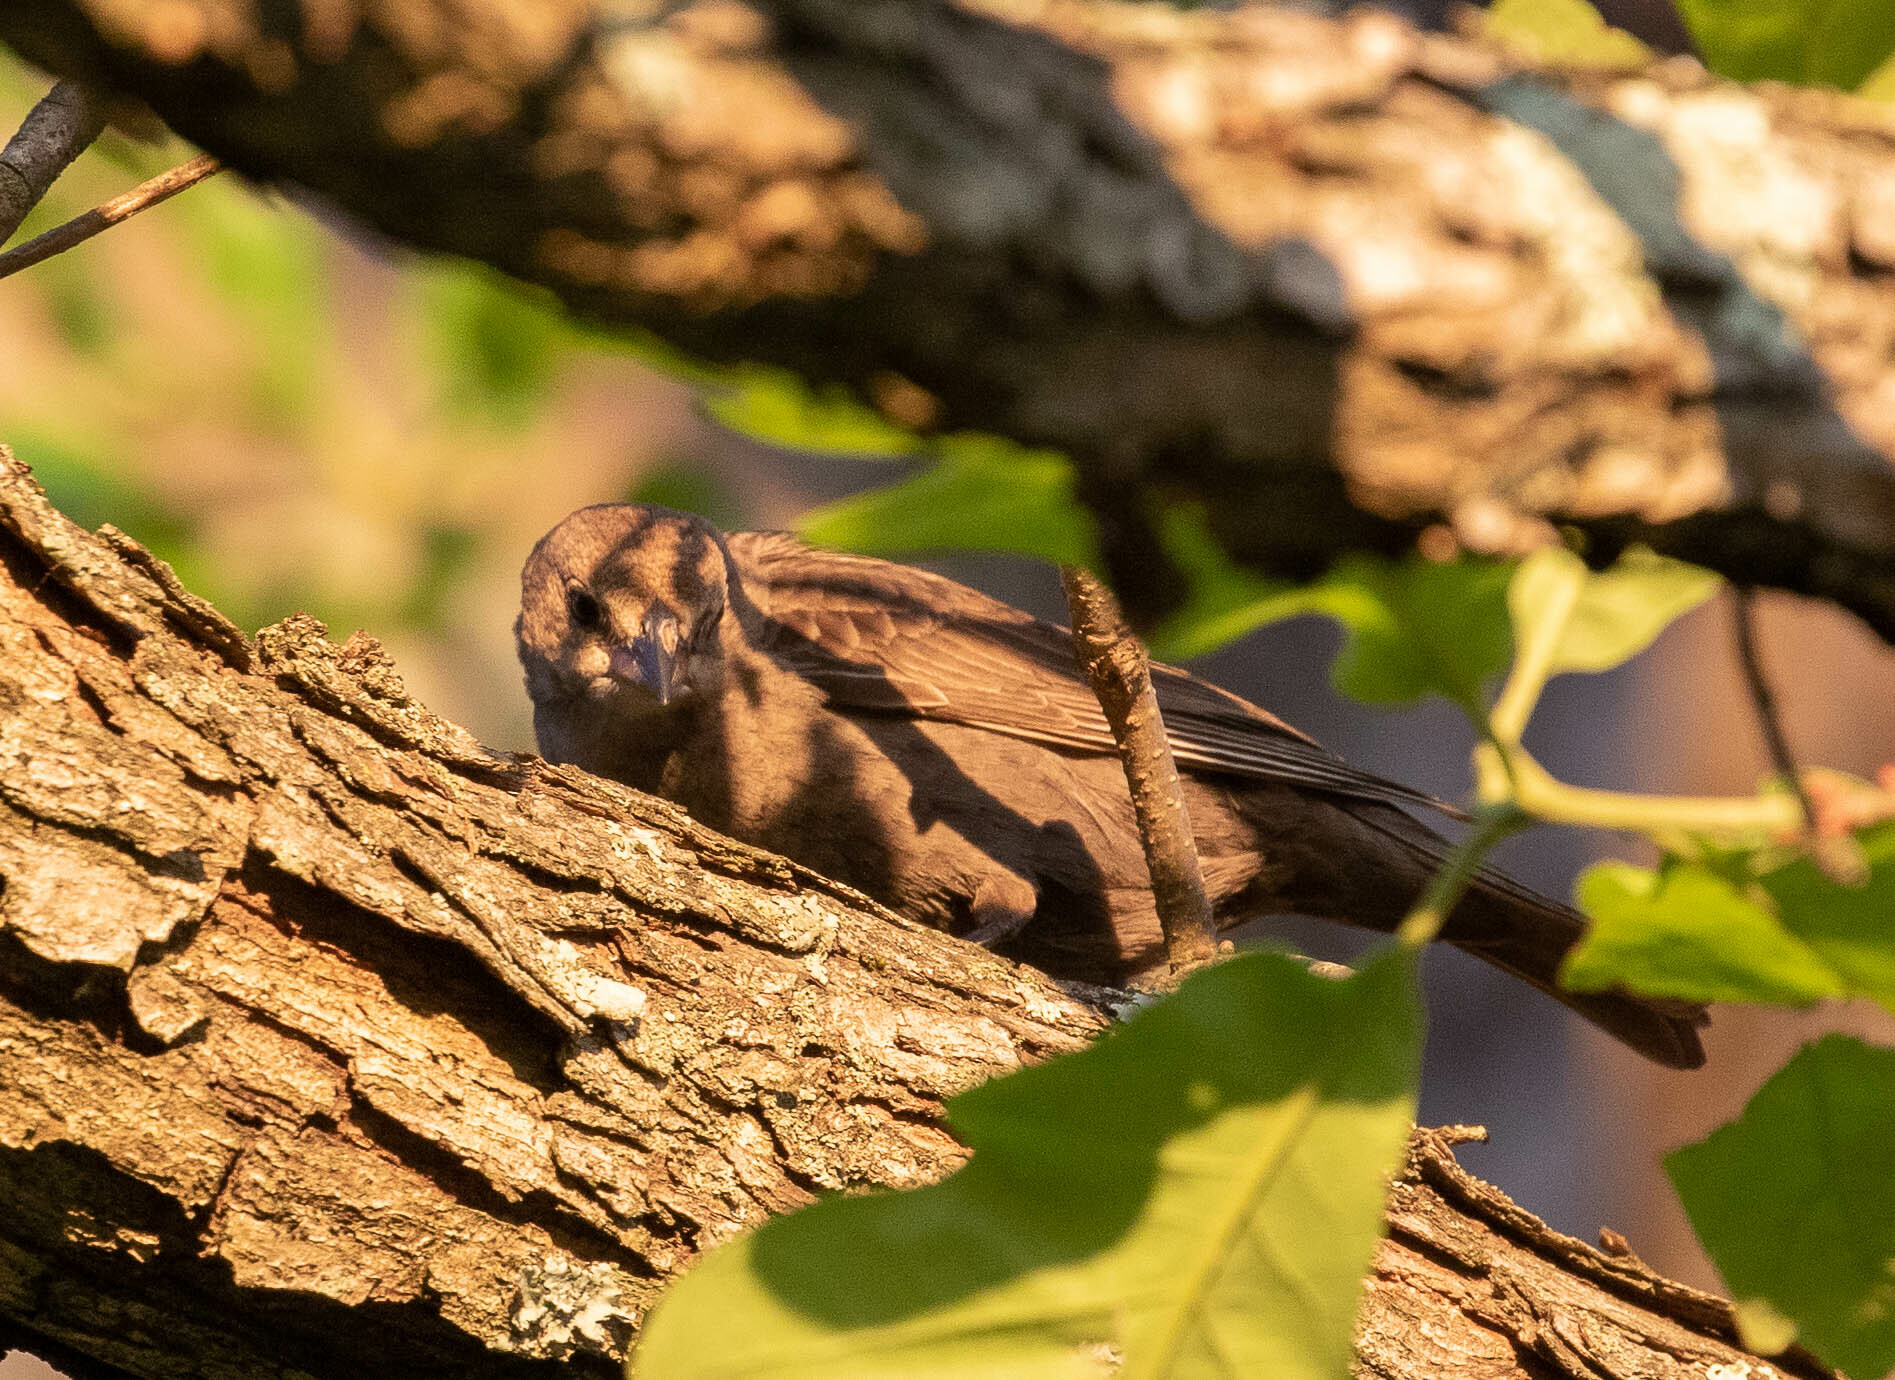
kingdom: Animalia
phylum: Chordata
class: Aves
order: Passeriformes
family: Icteridae
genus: Molothrus
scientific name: Molothrus ater
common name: Brown-headed cowbird
